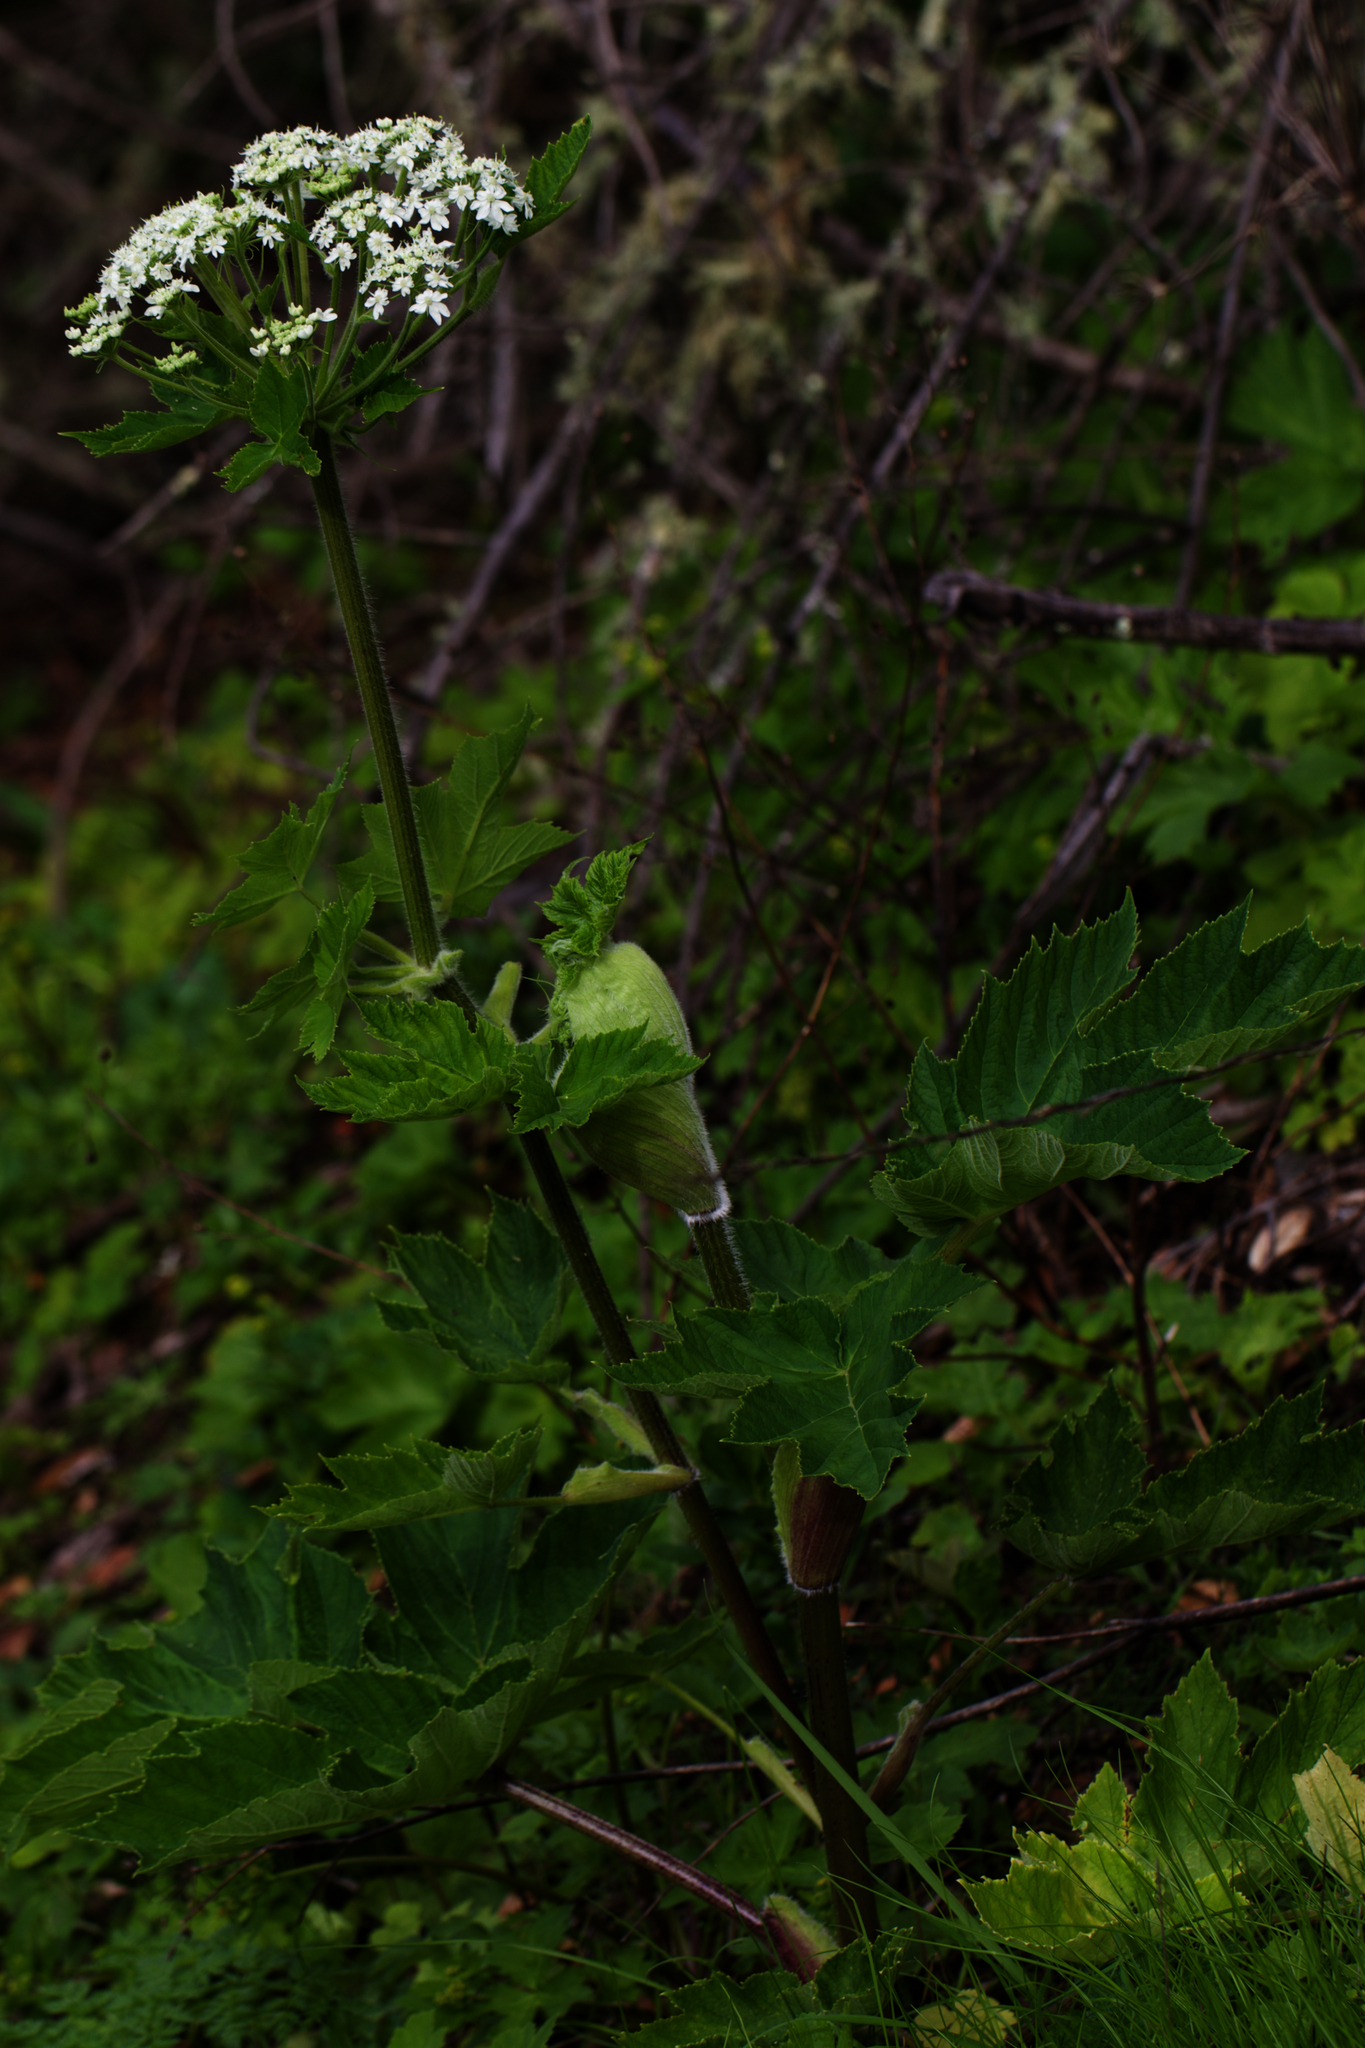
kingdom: Plantae
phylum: Tracheophyta
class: Magnoliopsida
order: Apiales
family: Apiaceae
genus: Heracleum
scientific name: Heracleum maximum
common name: American cow parsnip
